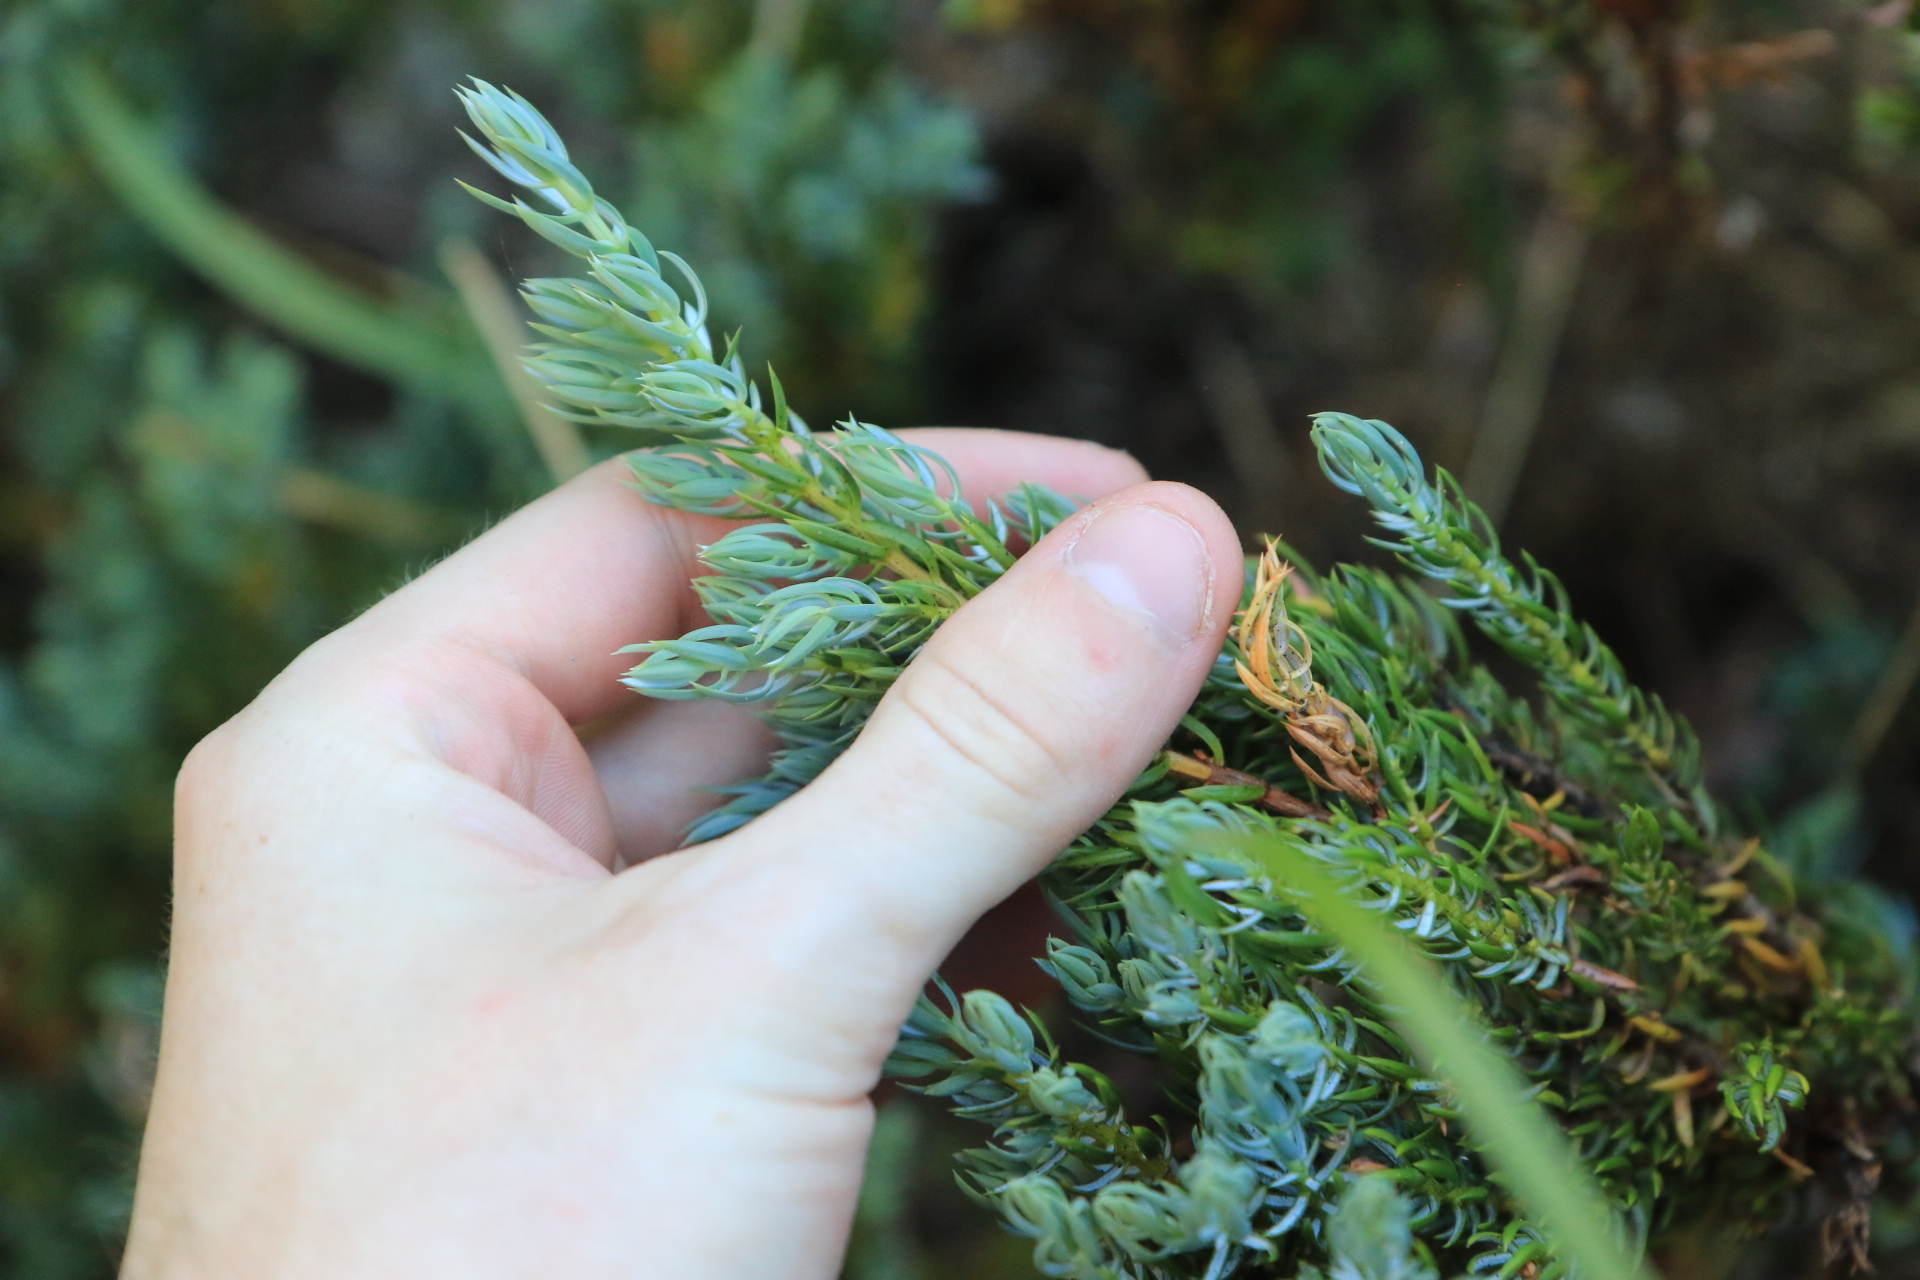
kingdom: Plantae
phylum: Tracheophyta
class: Pinopsida
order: Pinales
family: Cupressaceae
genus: Juniperus
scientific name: Juniperus communis
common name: Common juniper
